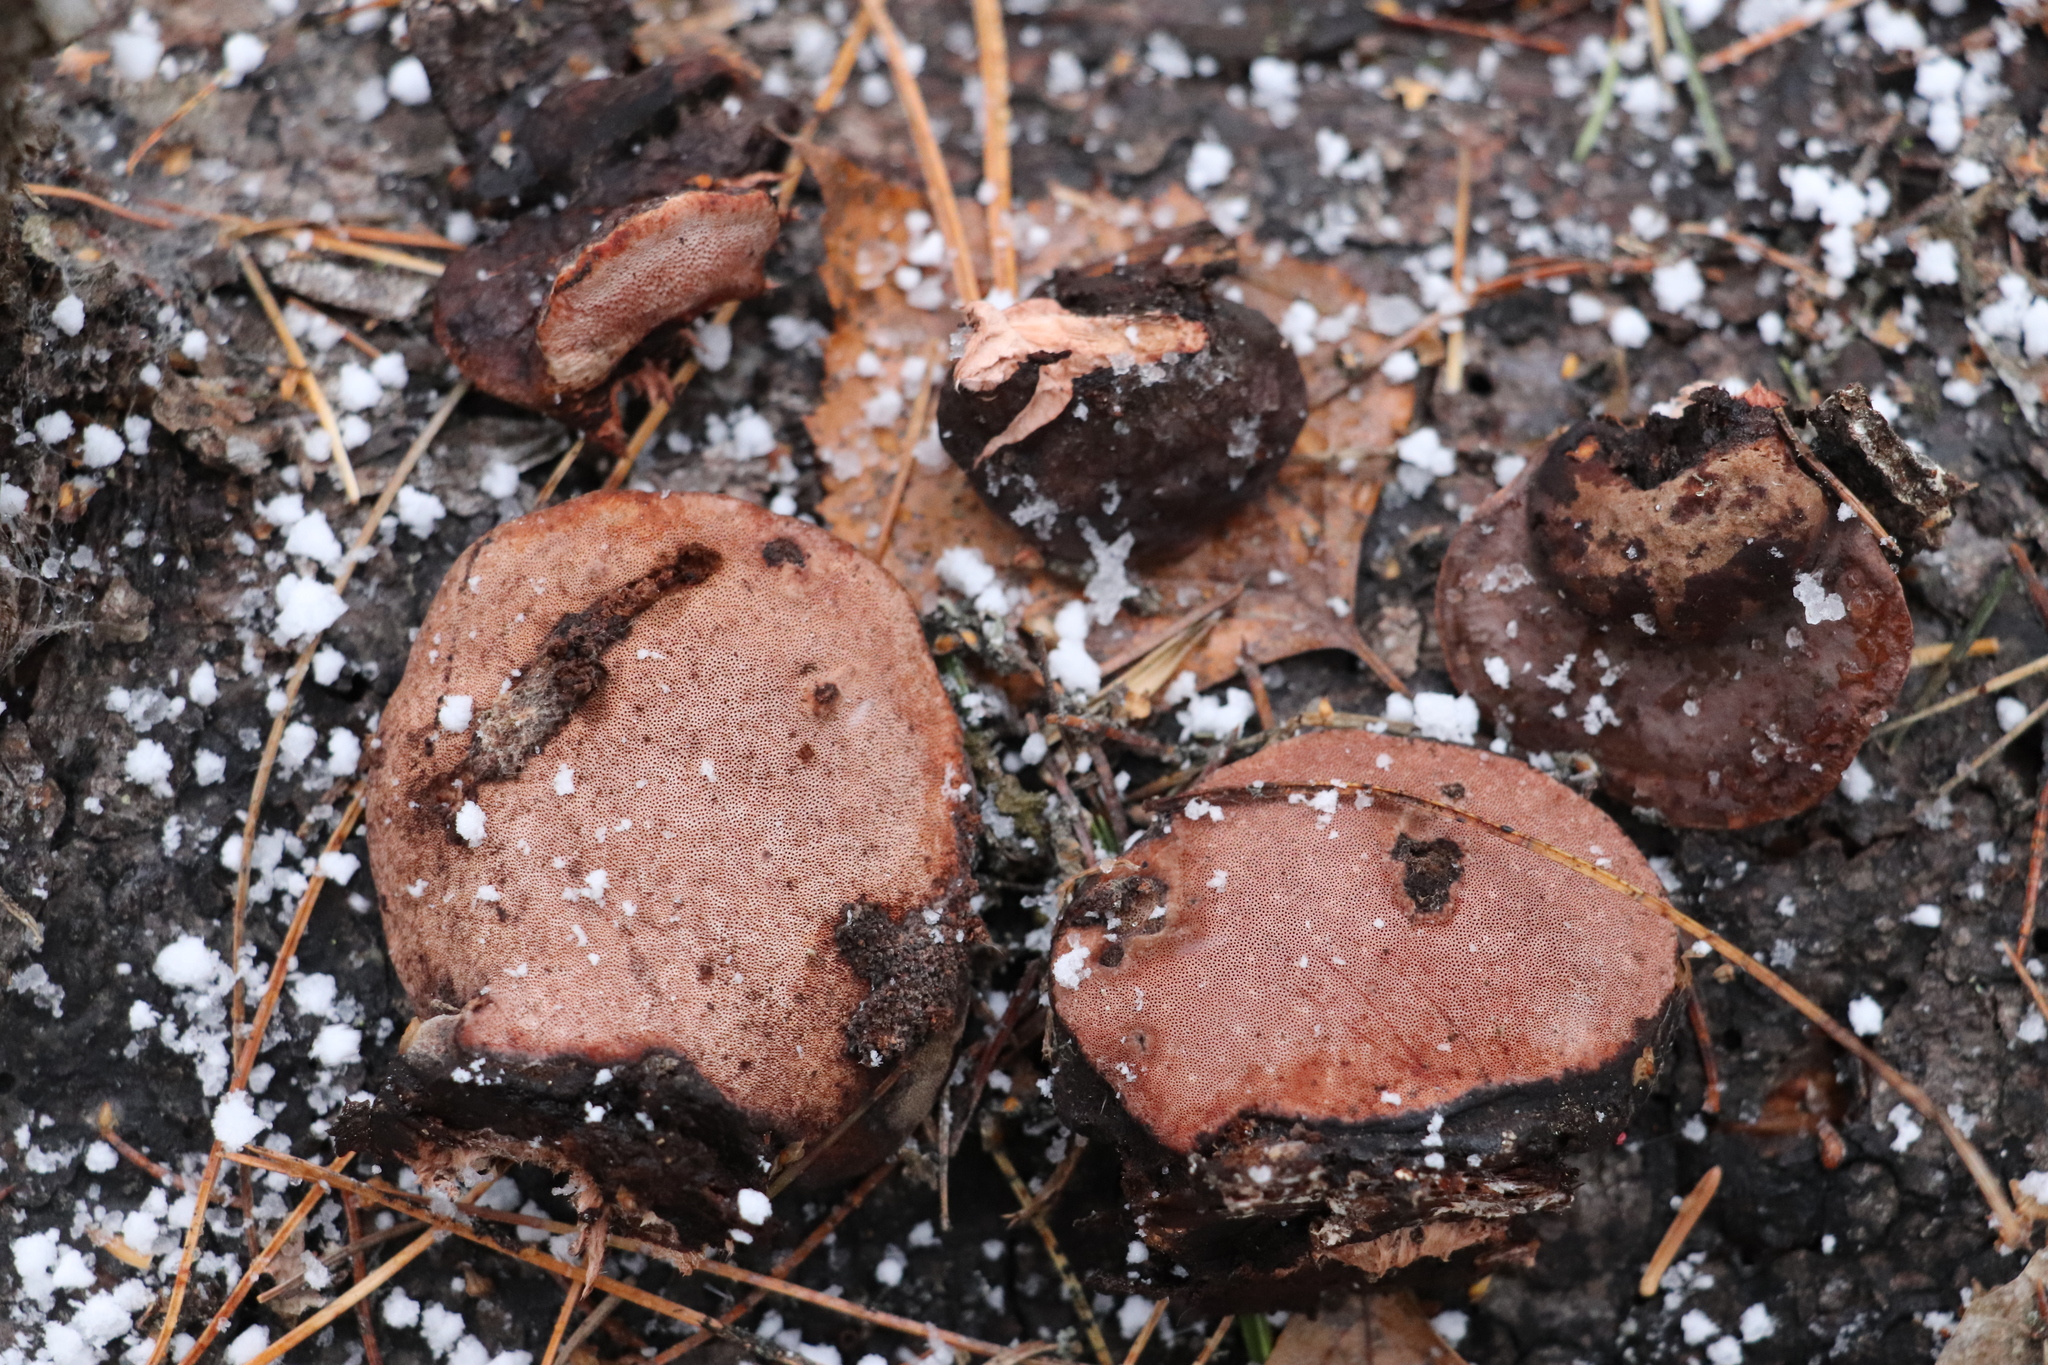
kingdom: Fungi
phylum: Basidiomycota
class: Agaricomycetes
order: Polyporales
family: Fomitopsidaceae
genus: Rhodofomes
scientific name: Rhodofomes roseus
